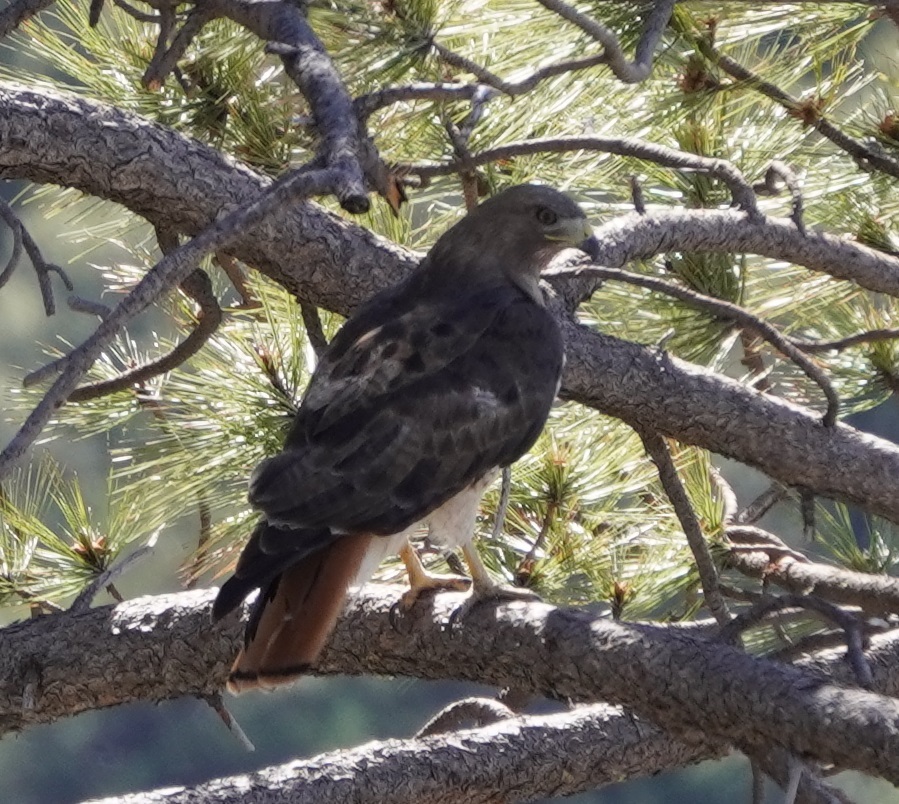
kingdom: Animalia
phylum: Chordata
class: Aves
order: Accipitriformes
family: Accipitridae
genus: Buteo
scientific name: Buteo jamaicensis
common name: Red-tailed hawk
